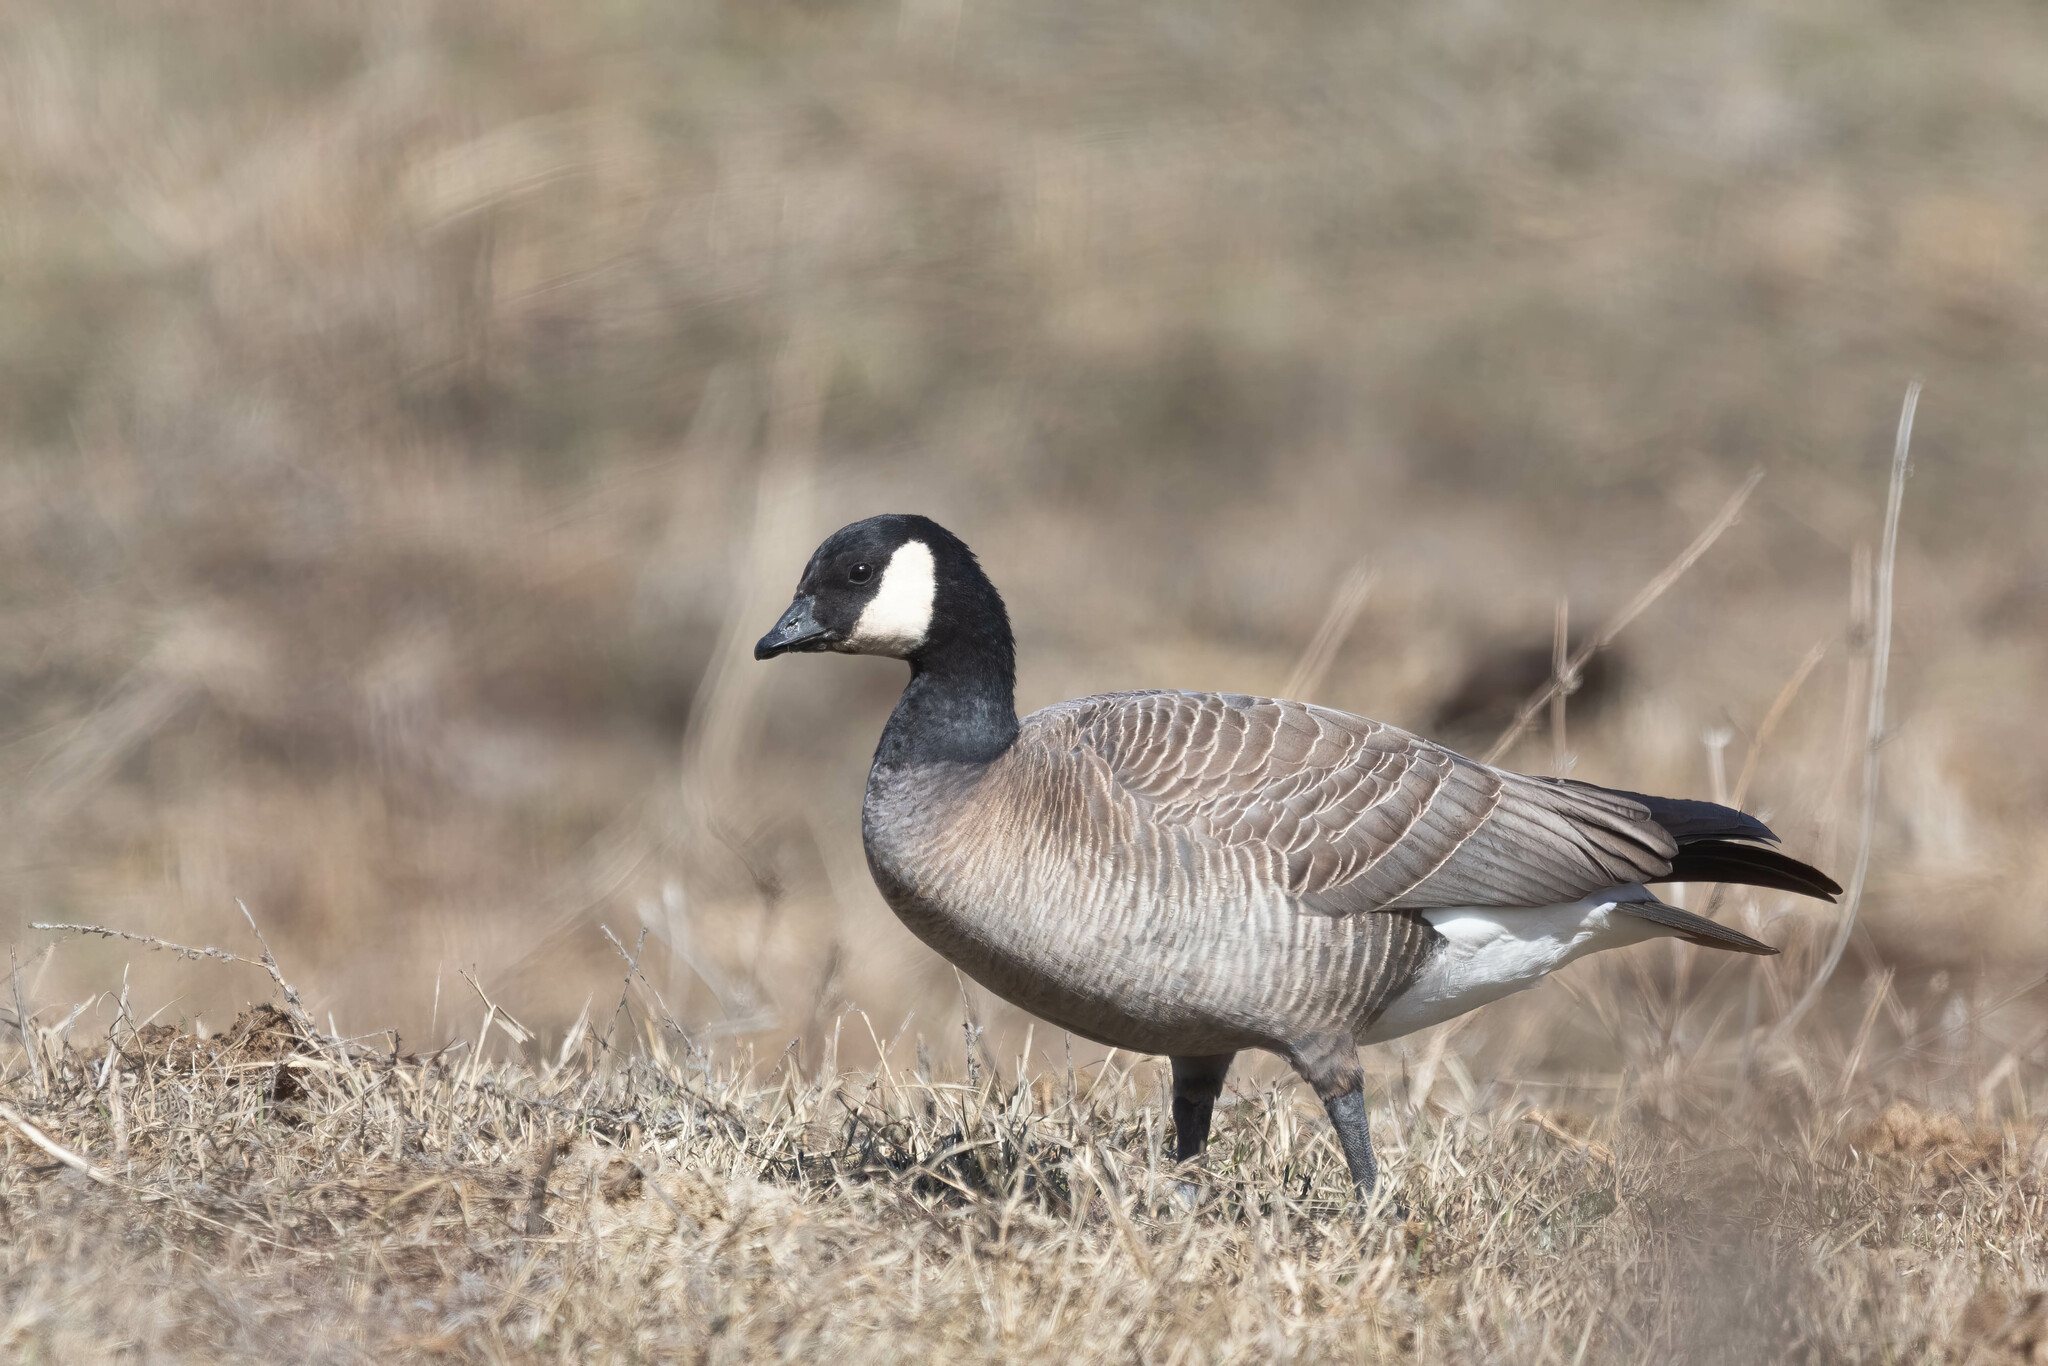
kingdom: Animalia
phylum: Chordata
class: Aves
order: Anseriformes
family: Anatidae
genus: Branta
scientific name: Branta hutchinsii
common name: Cackling goose
